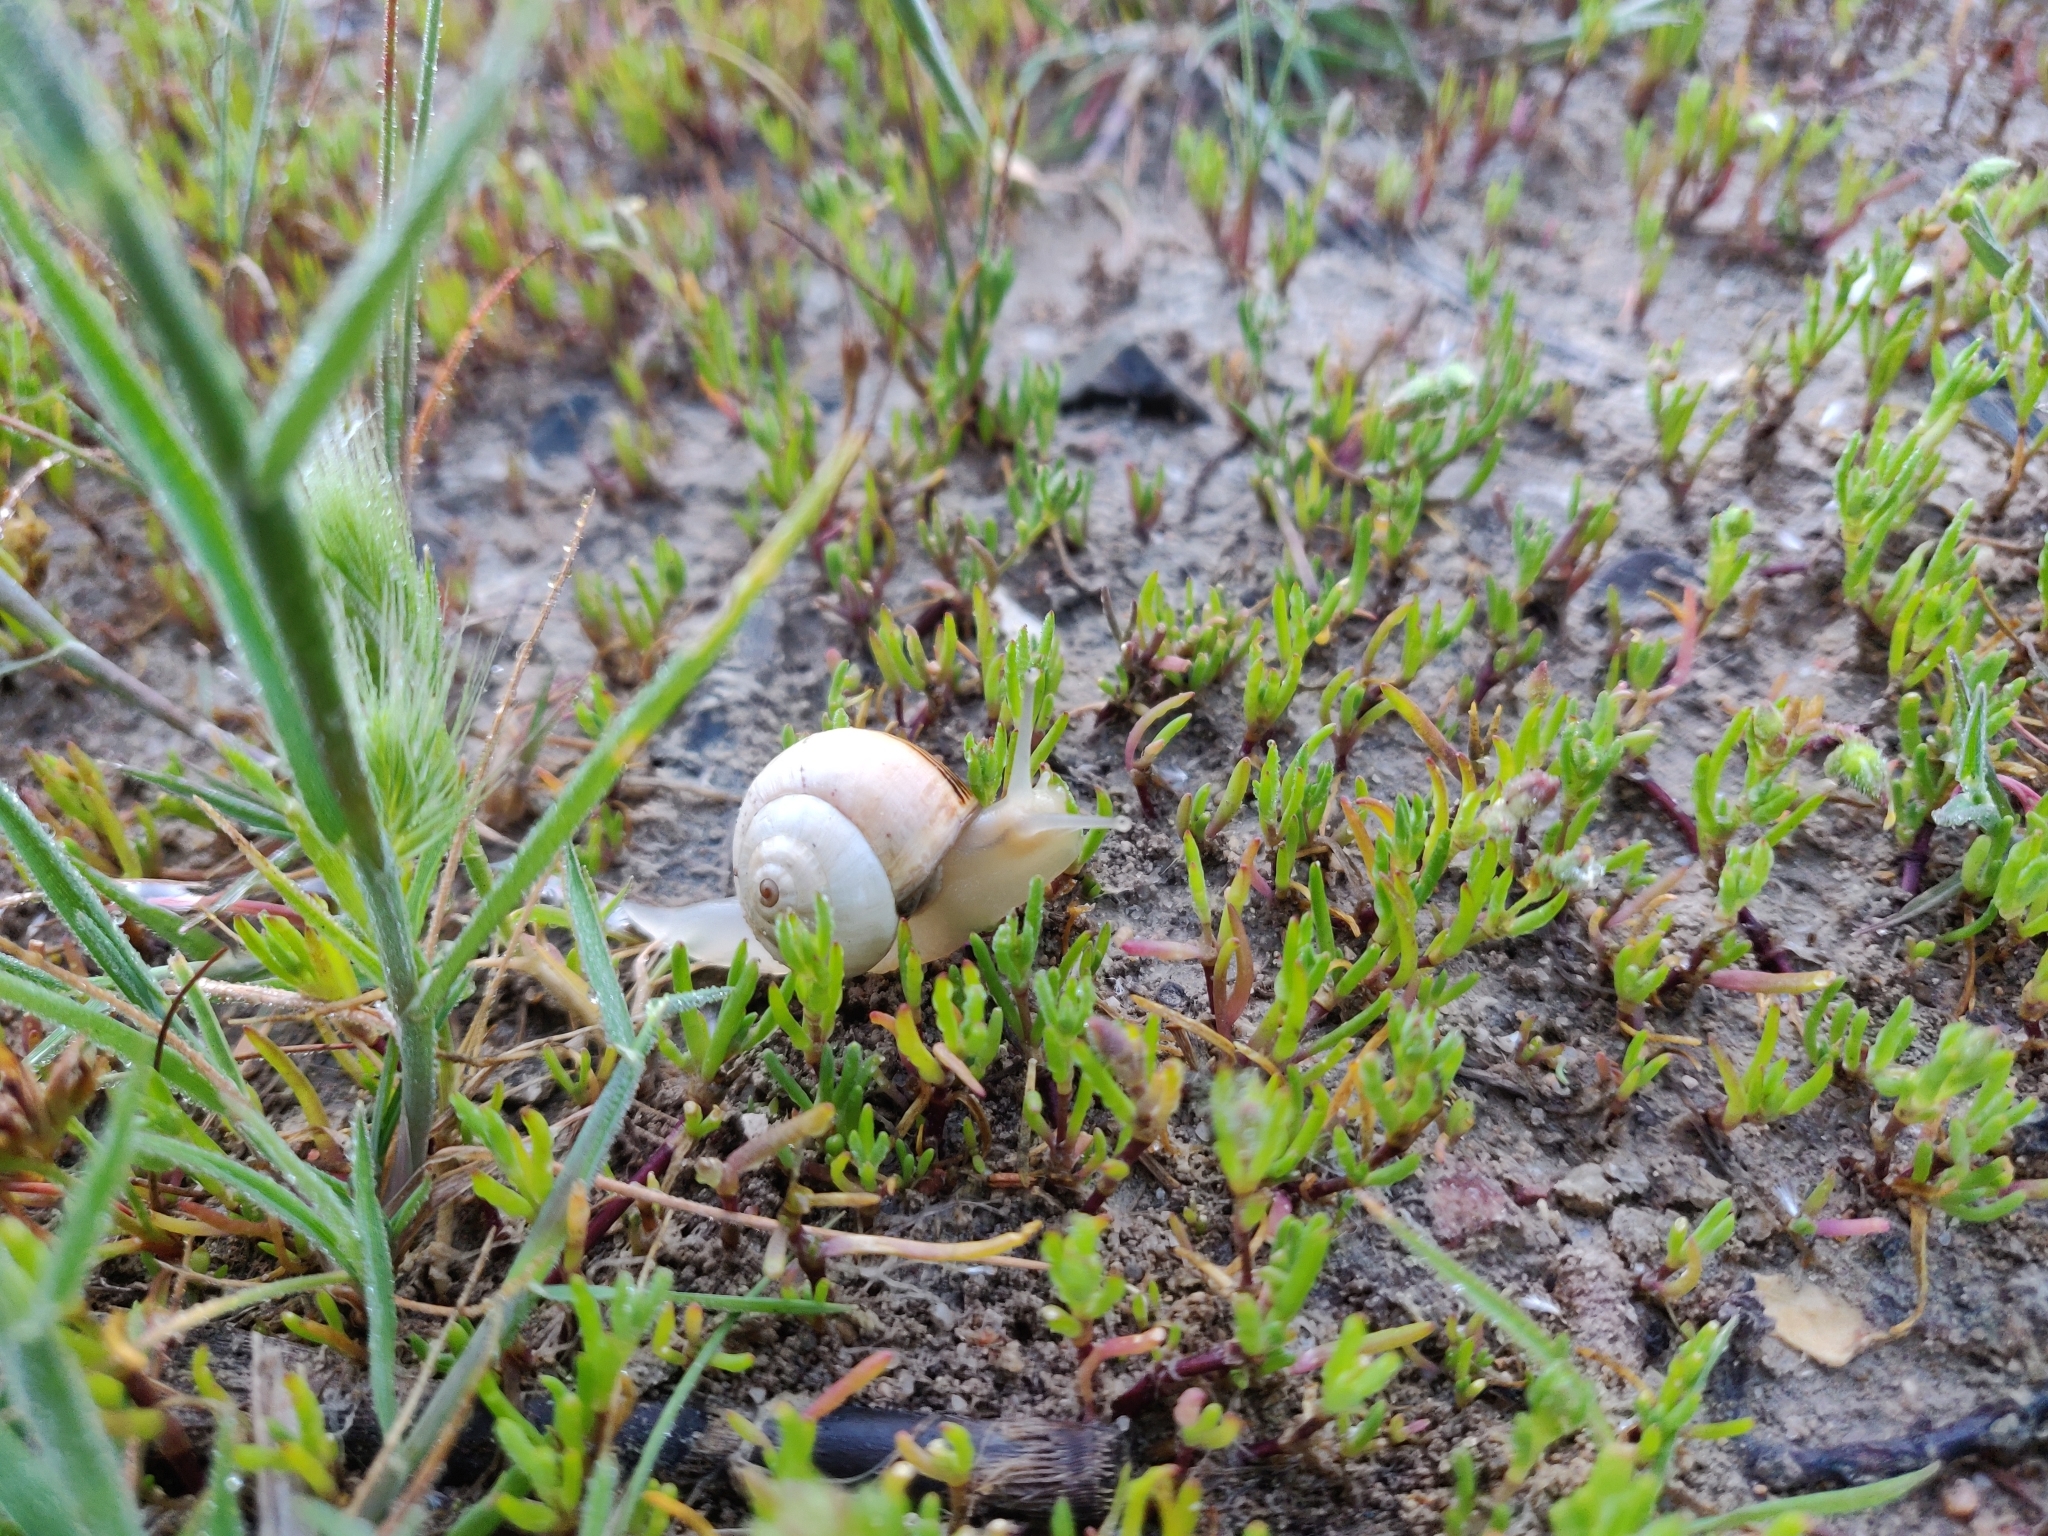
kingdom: Animalia
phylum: Mollusca
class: Gastropoda
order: Stylommatophora
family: Helicidae
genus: Theba
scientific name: Theba pisana
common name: White snail
